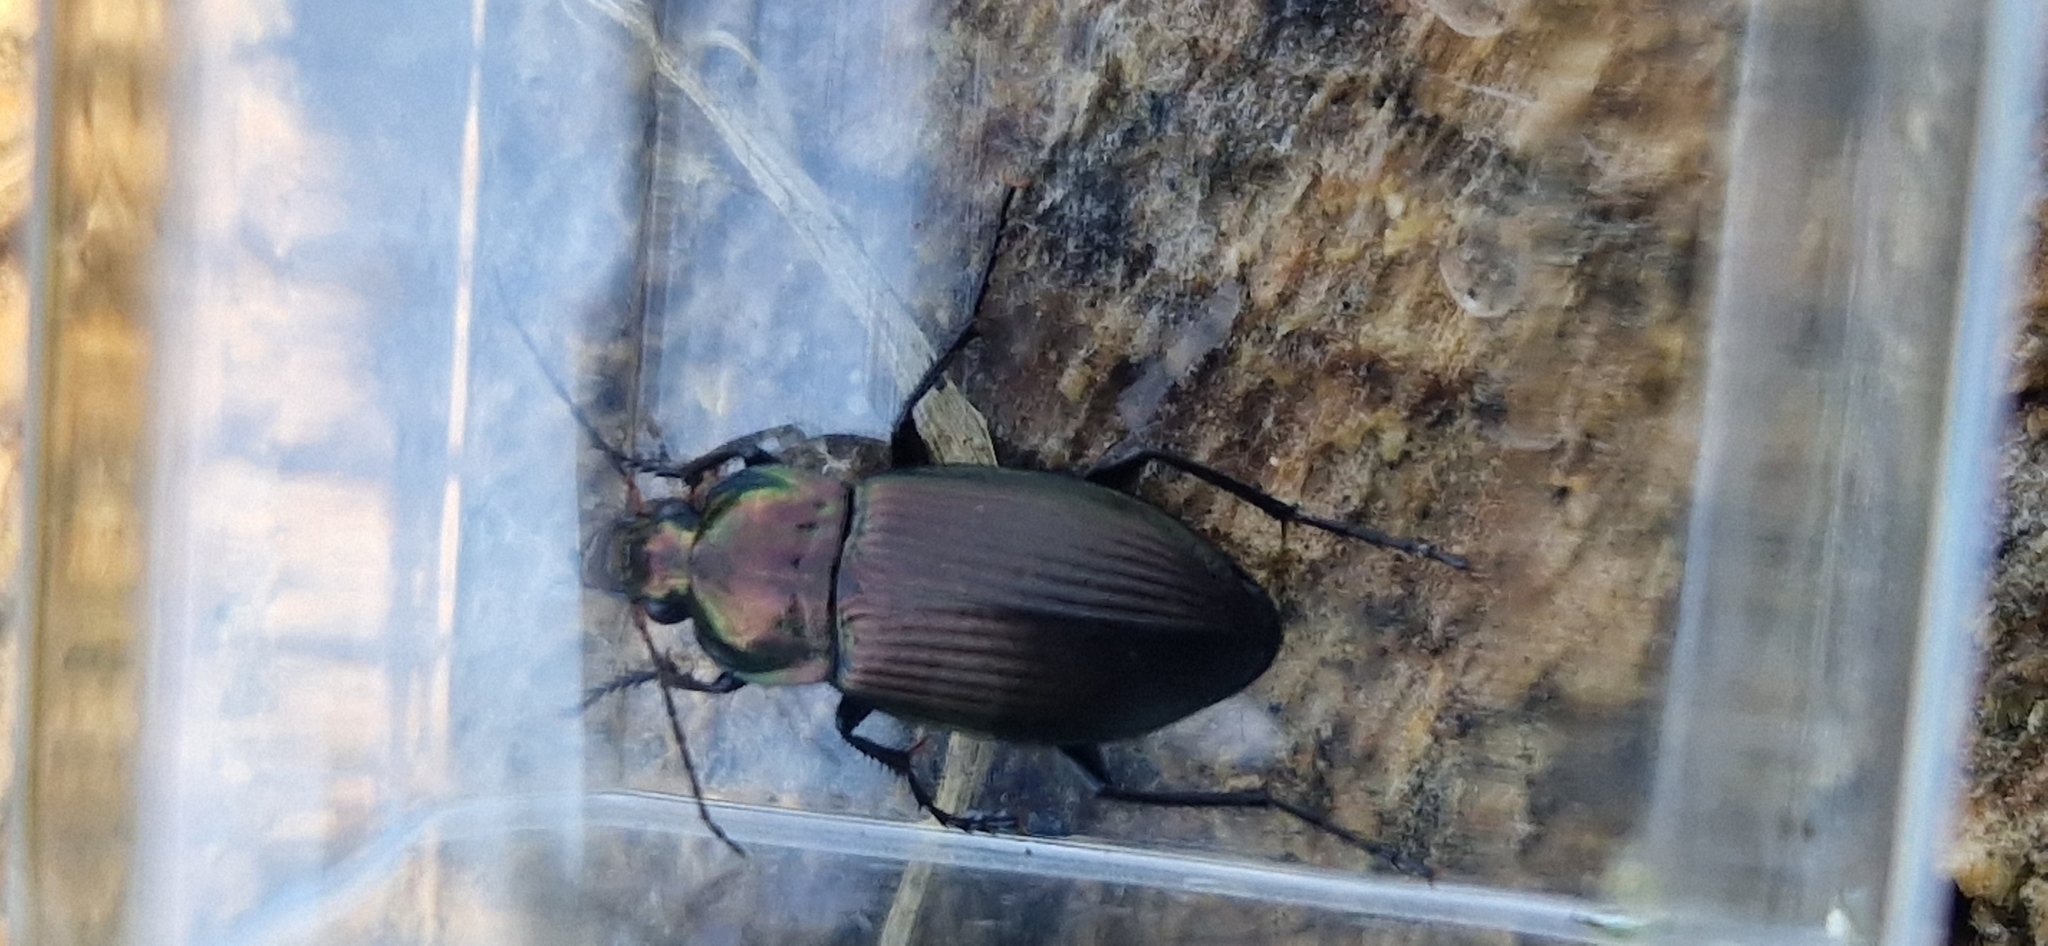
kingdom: Animalia
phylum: Arthropoda
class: Insecta
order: Coleoptera
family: Carabidae
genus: Poecilus
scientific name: Poecilus cupreus
